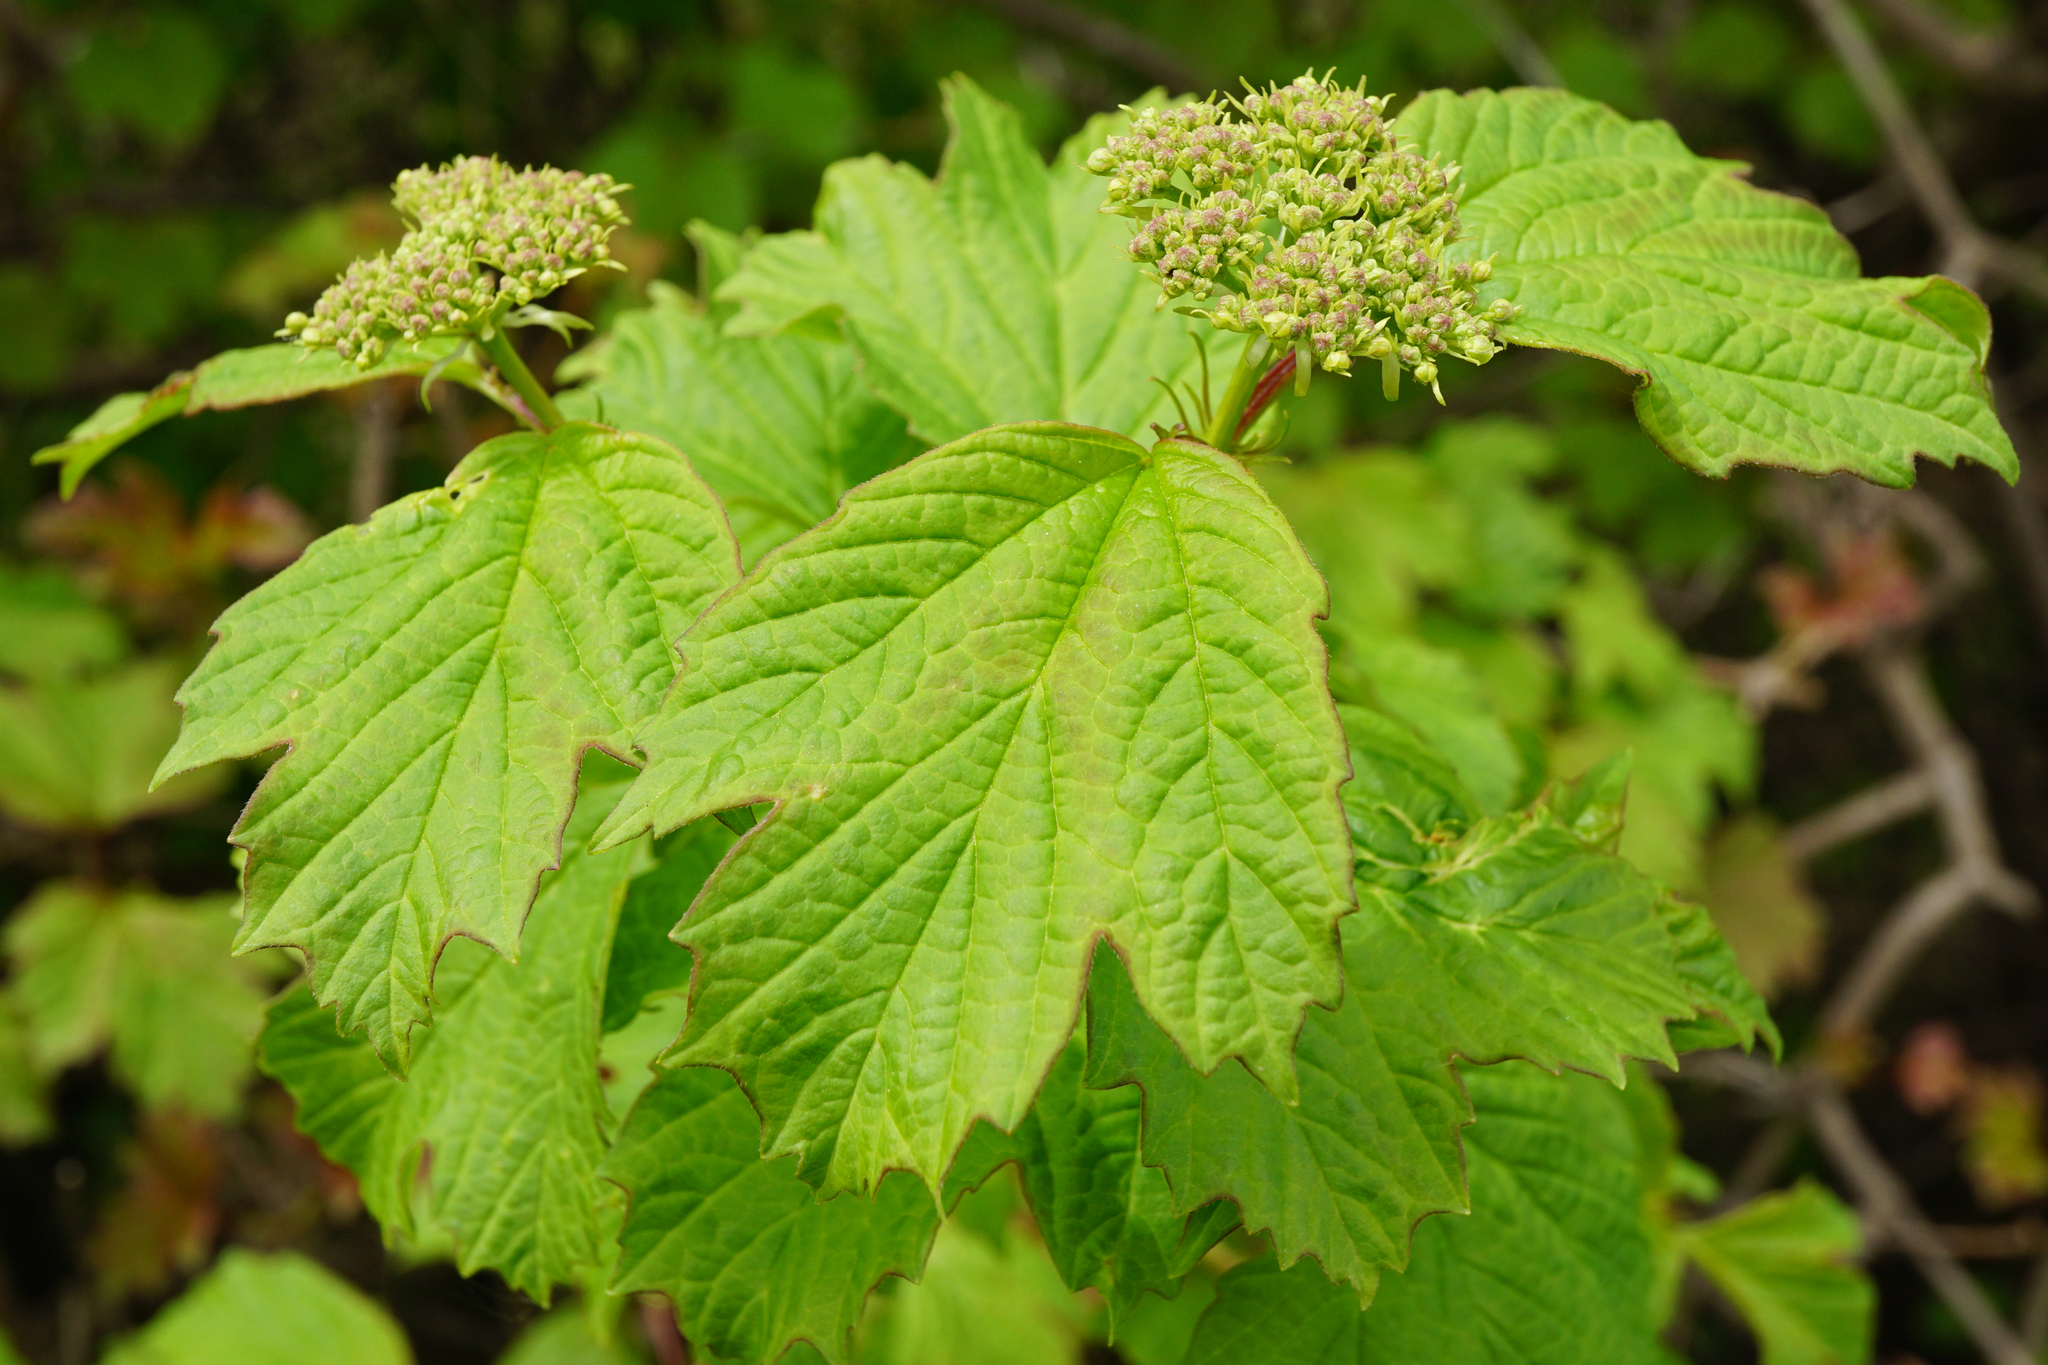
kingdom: Plantae
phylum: Tracheophyta
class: Magnoliopsida
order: Dipsacales
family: Viburnaceae
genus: Viburnum
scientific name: Viburnum opulus
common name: Guelder-rose
